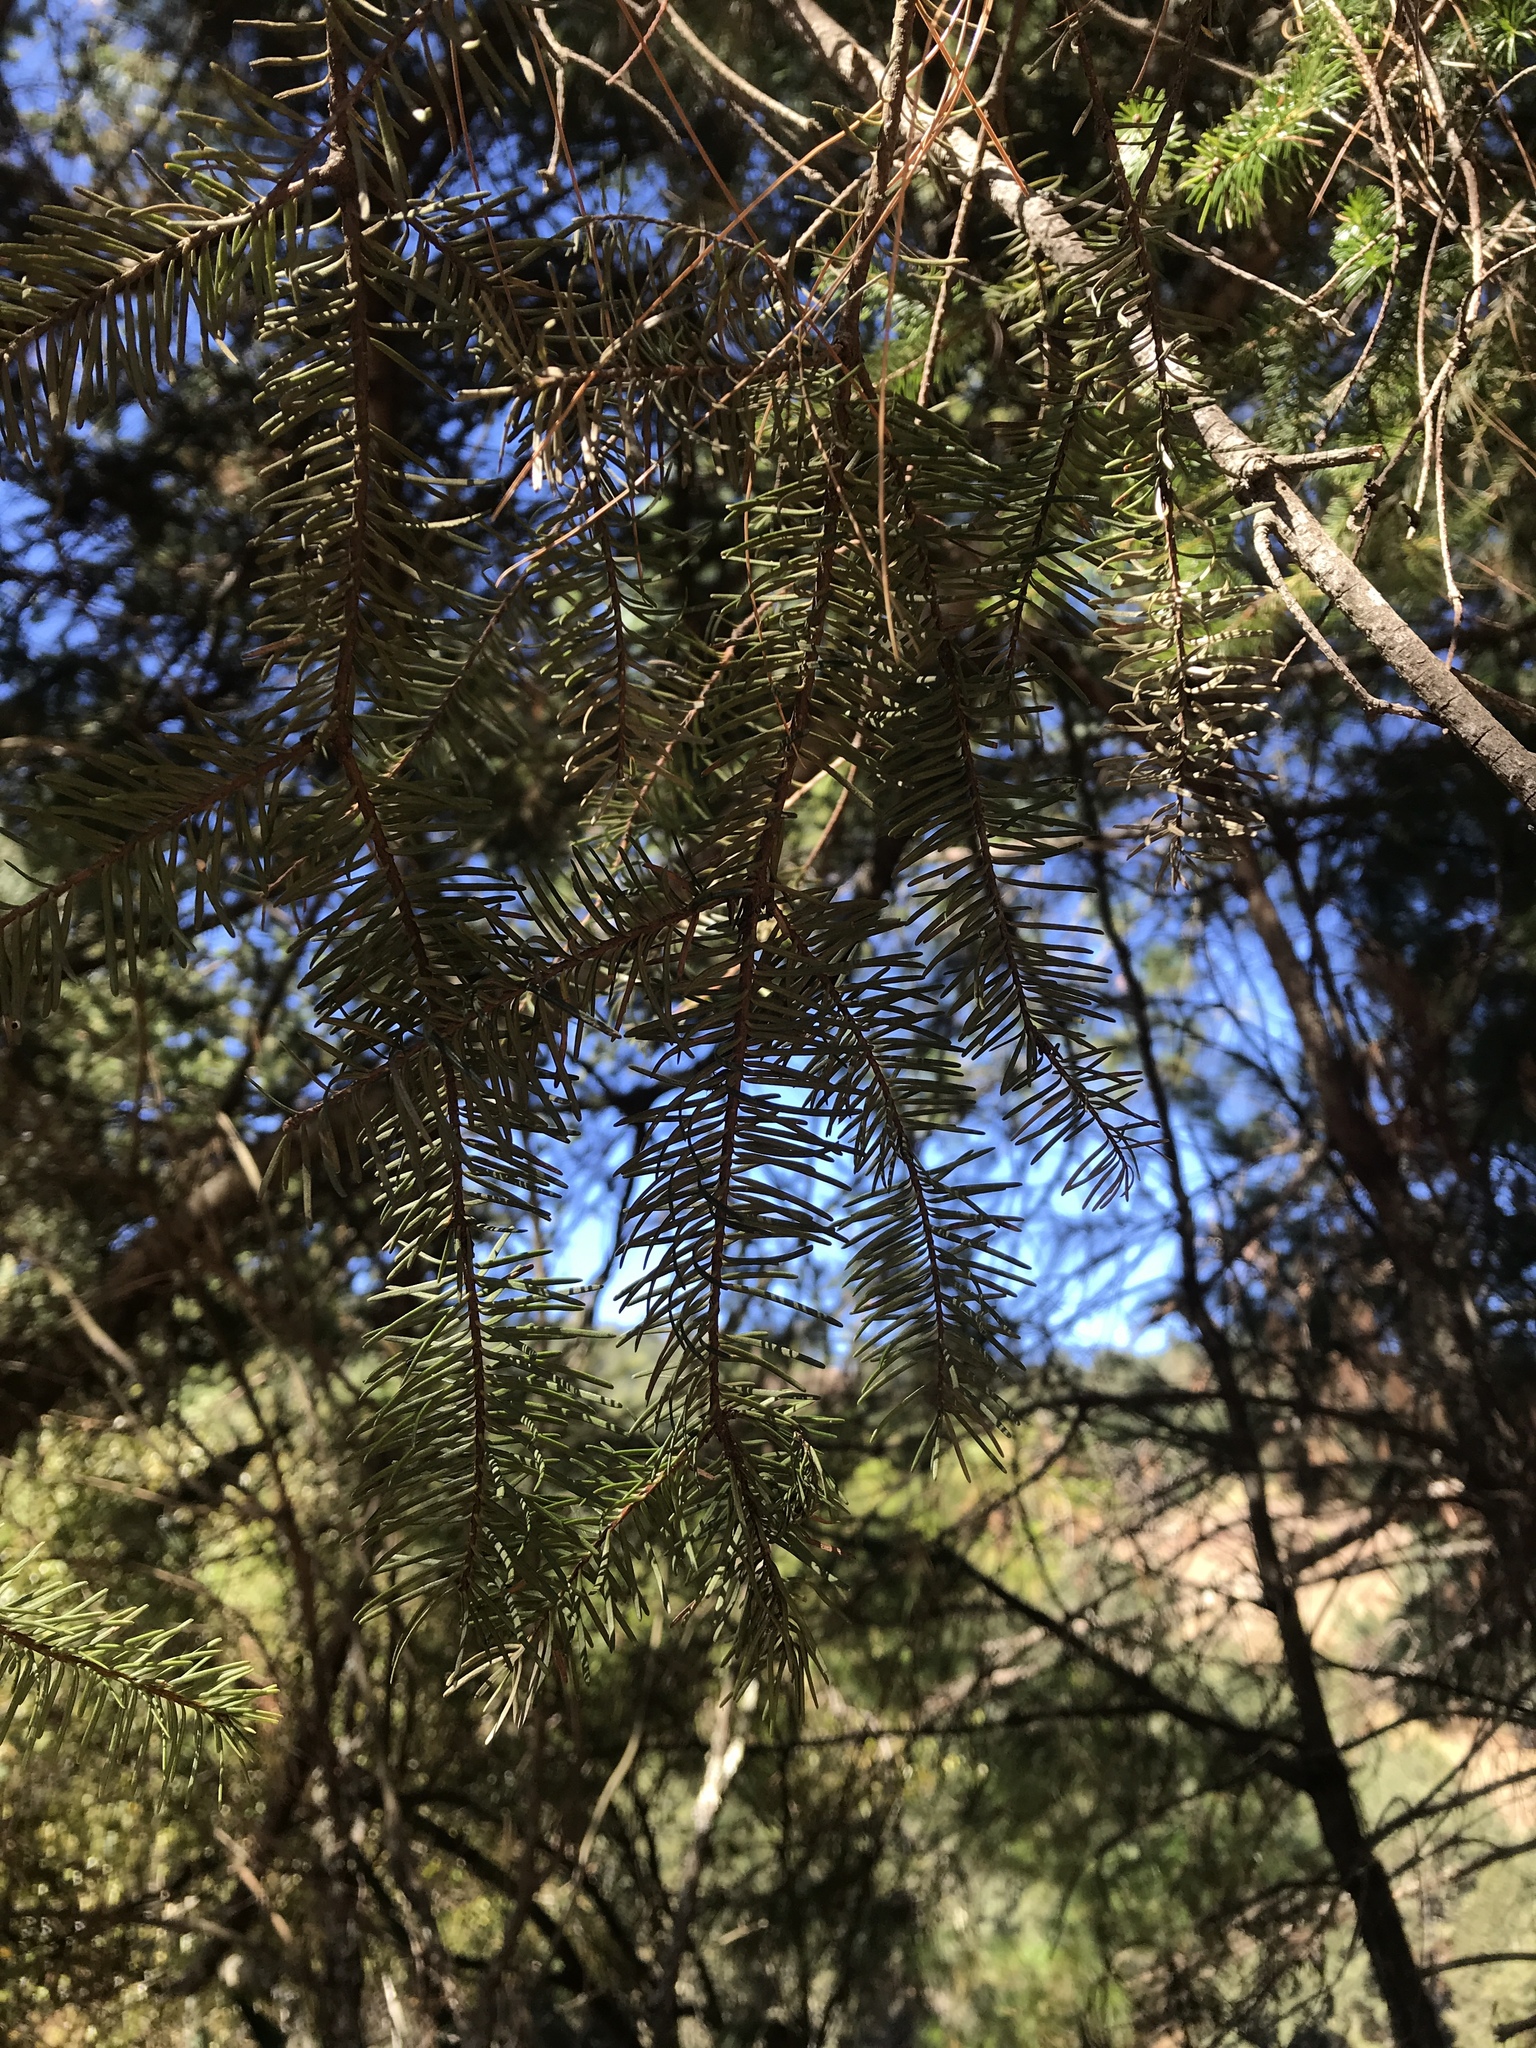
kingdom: Plantae
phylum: Tracheophyta
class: Pinopsida
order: Pinales
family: Pinaceae
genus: Abies
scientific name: Abies hickelii
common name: Hickel's fir
